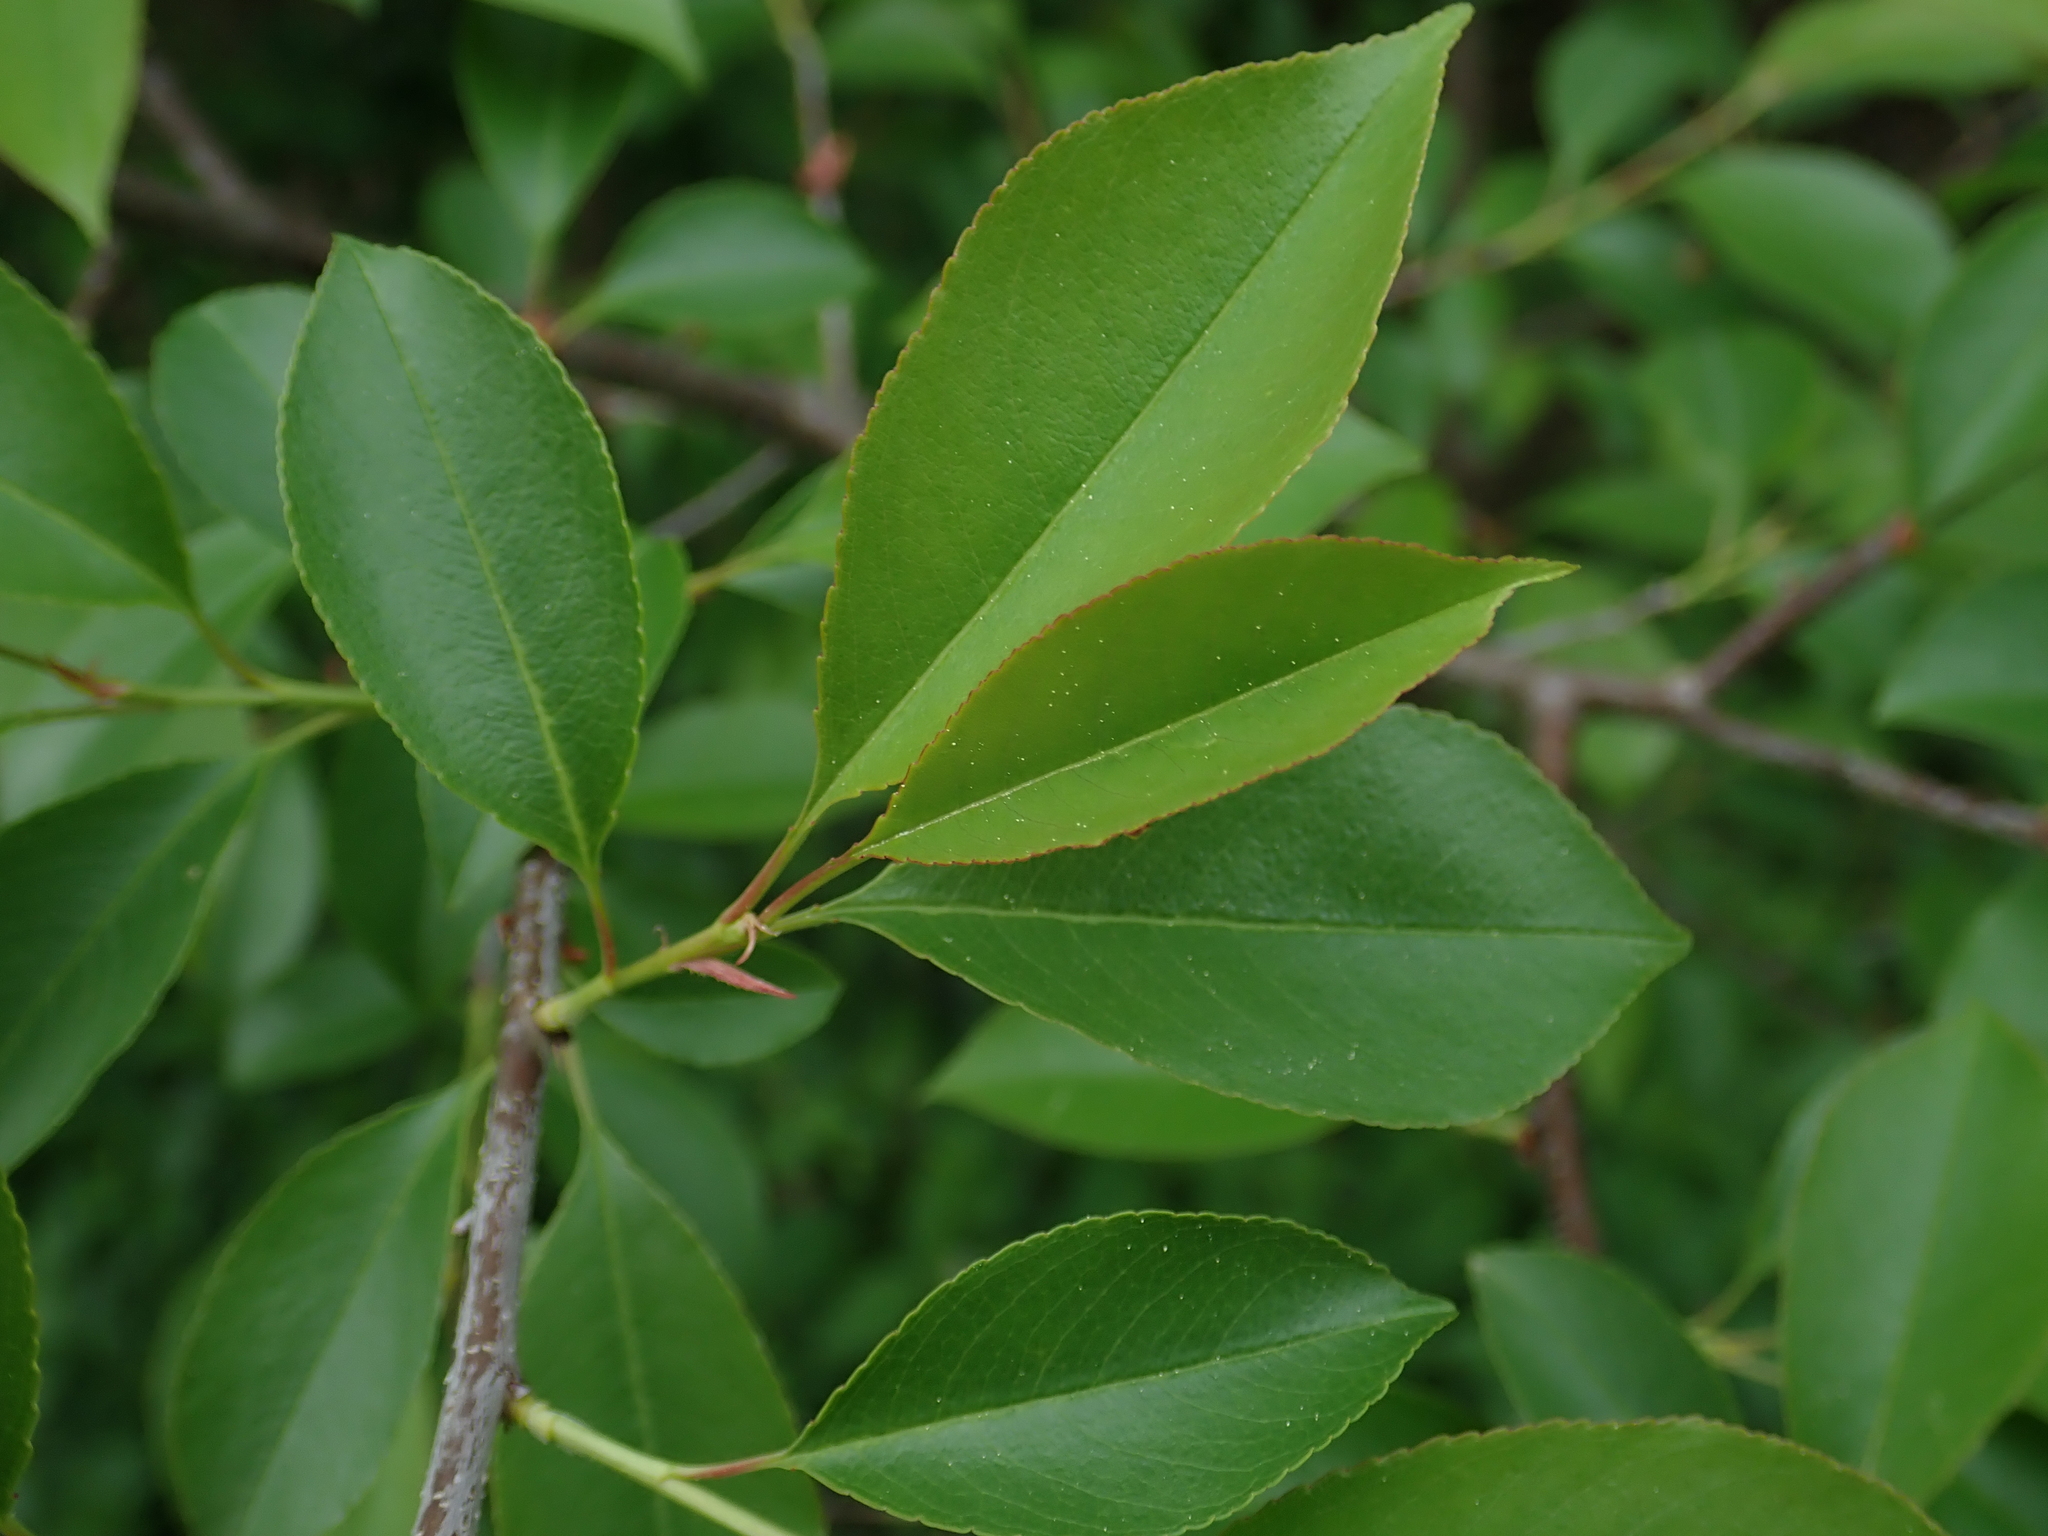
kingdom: Plantae
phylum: Tracheophyta
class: Magnoliopsida
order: Rosales
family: Rosaceae
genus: Prunus
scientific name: Prunus serotina
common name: Black cherry
